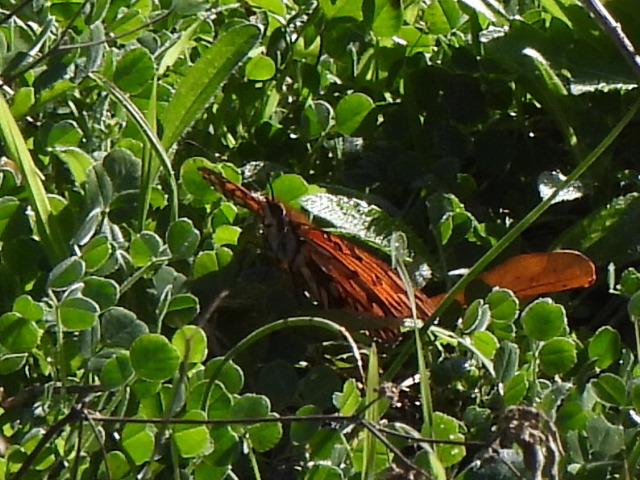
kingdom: Animalia
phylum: Arthropoda
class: Insecta
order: Lepidoptera
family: Nymphalidae
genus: Dione
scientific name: Dione vanillae
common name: Gulf fritillary
